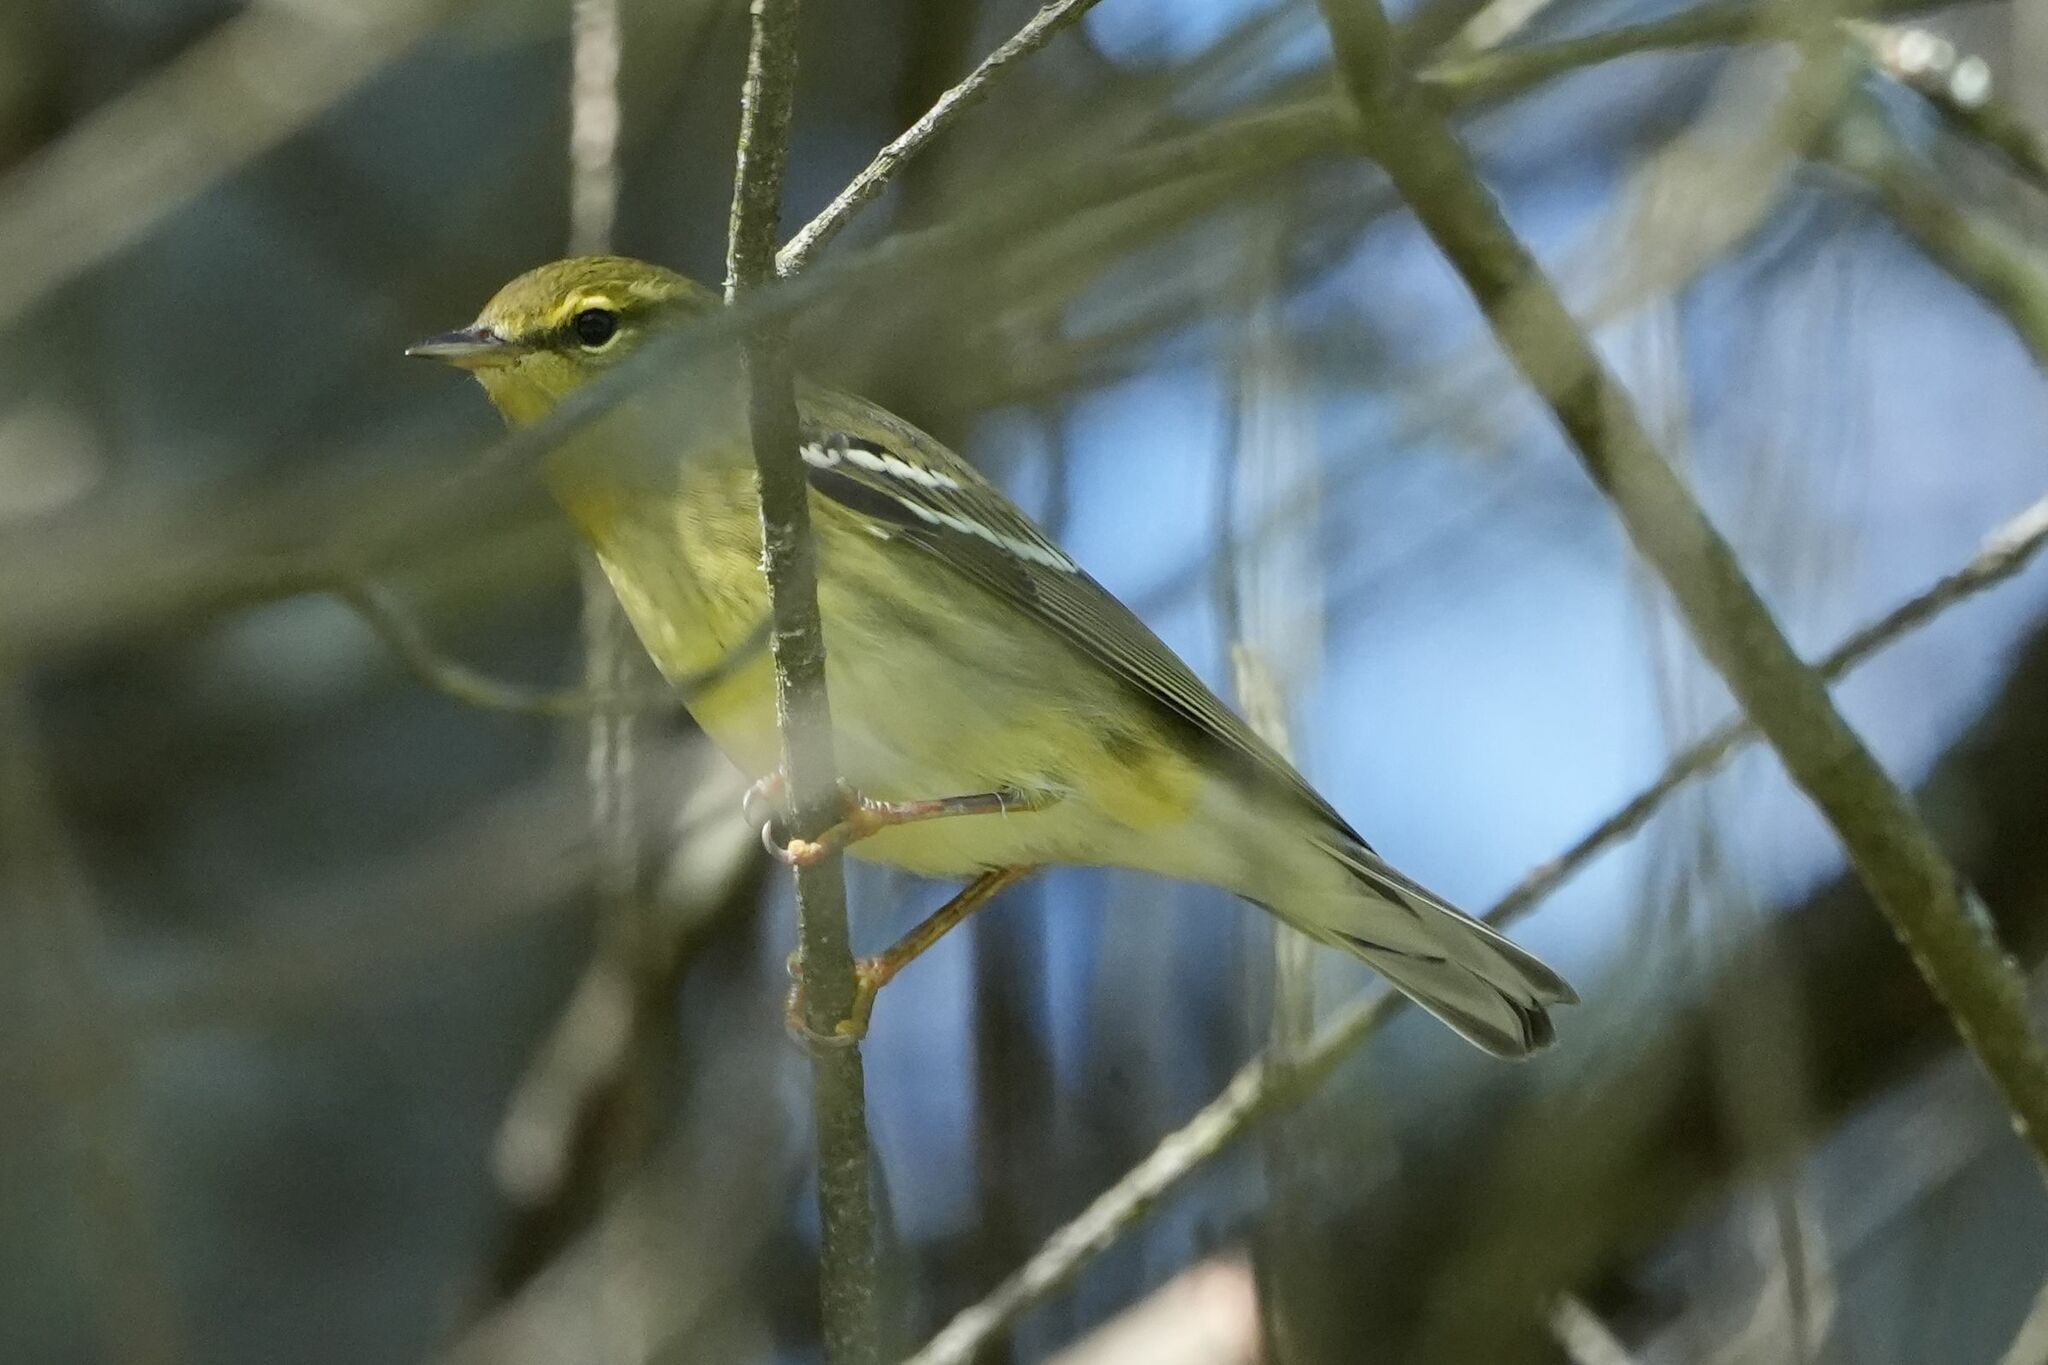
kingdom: Animalia
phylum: Chordata
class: Aves
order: Passeriformes
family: Parulidae
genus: Setophaga
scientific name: Setophaga striata
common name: Blackpoll warbler
